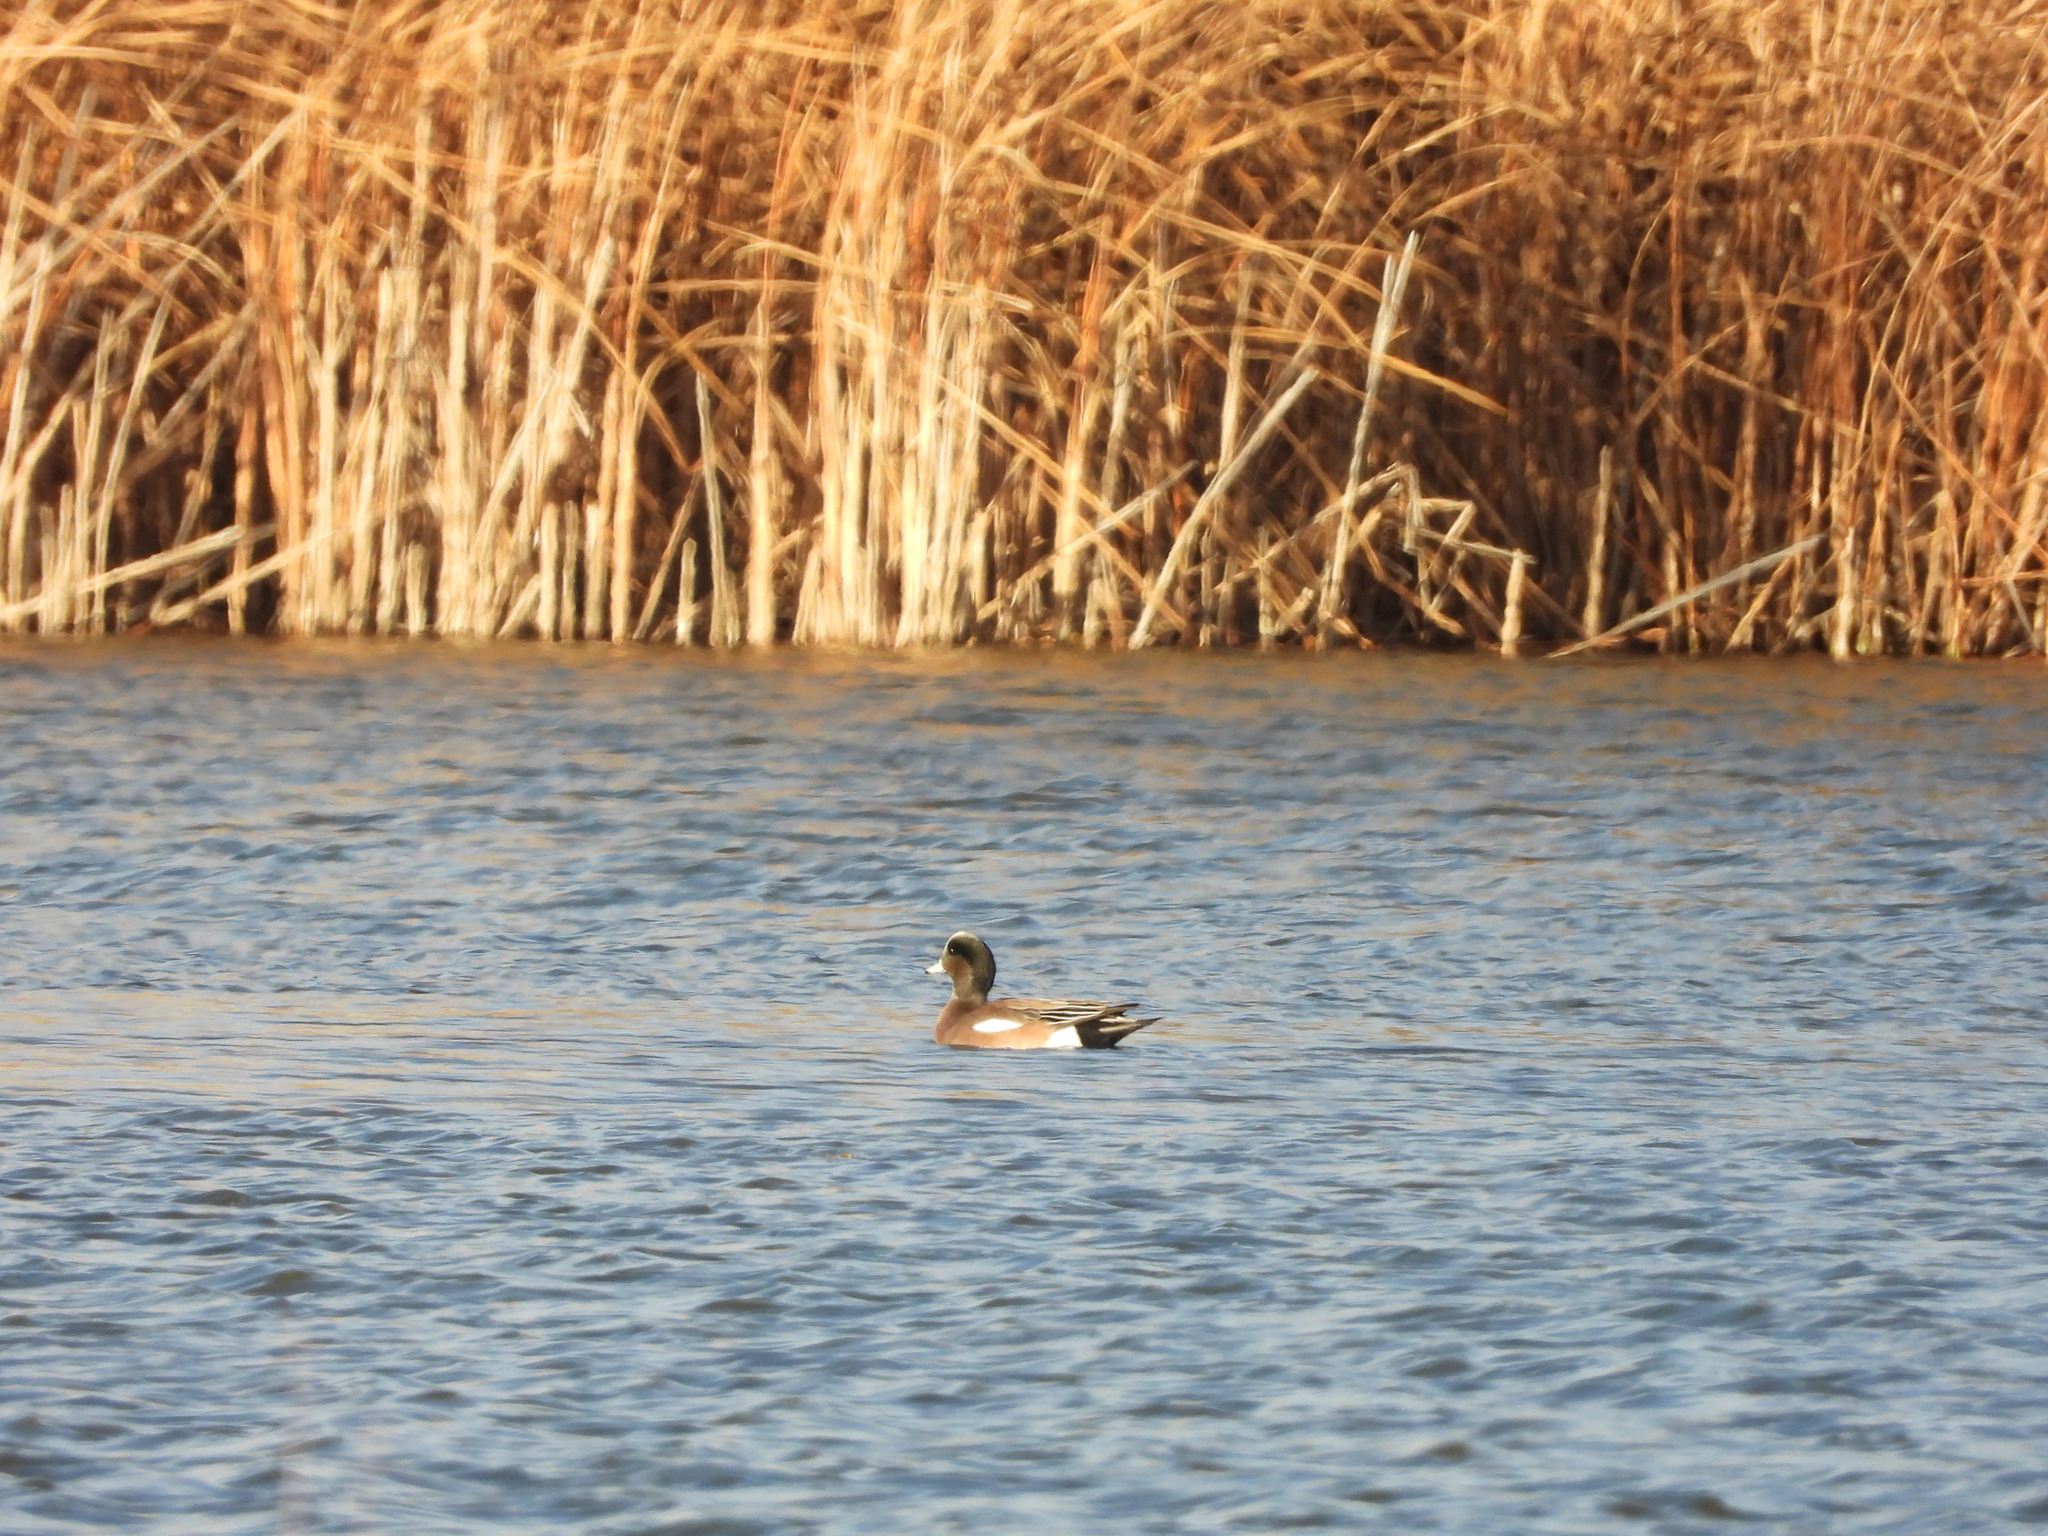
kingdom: Animalia
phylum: Chordata
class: Aves
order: Anseriformes
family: Anatidae
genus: Mareca
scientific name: Mareca americana
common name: American wigeon
